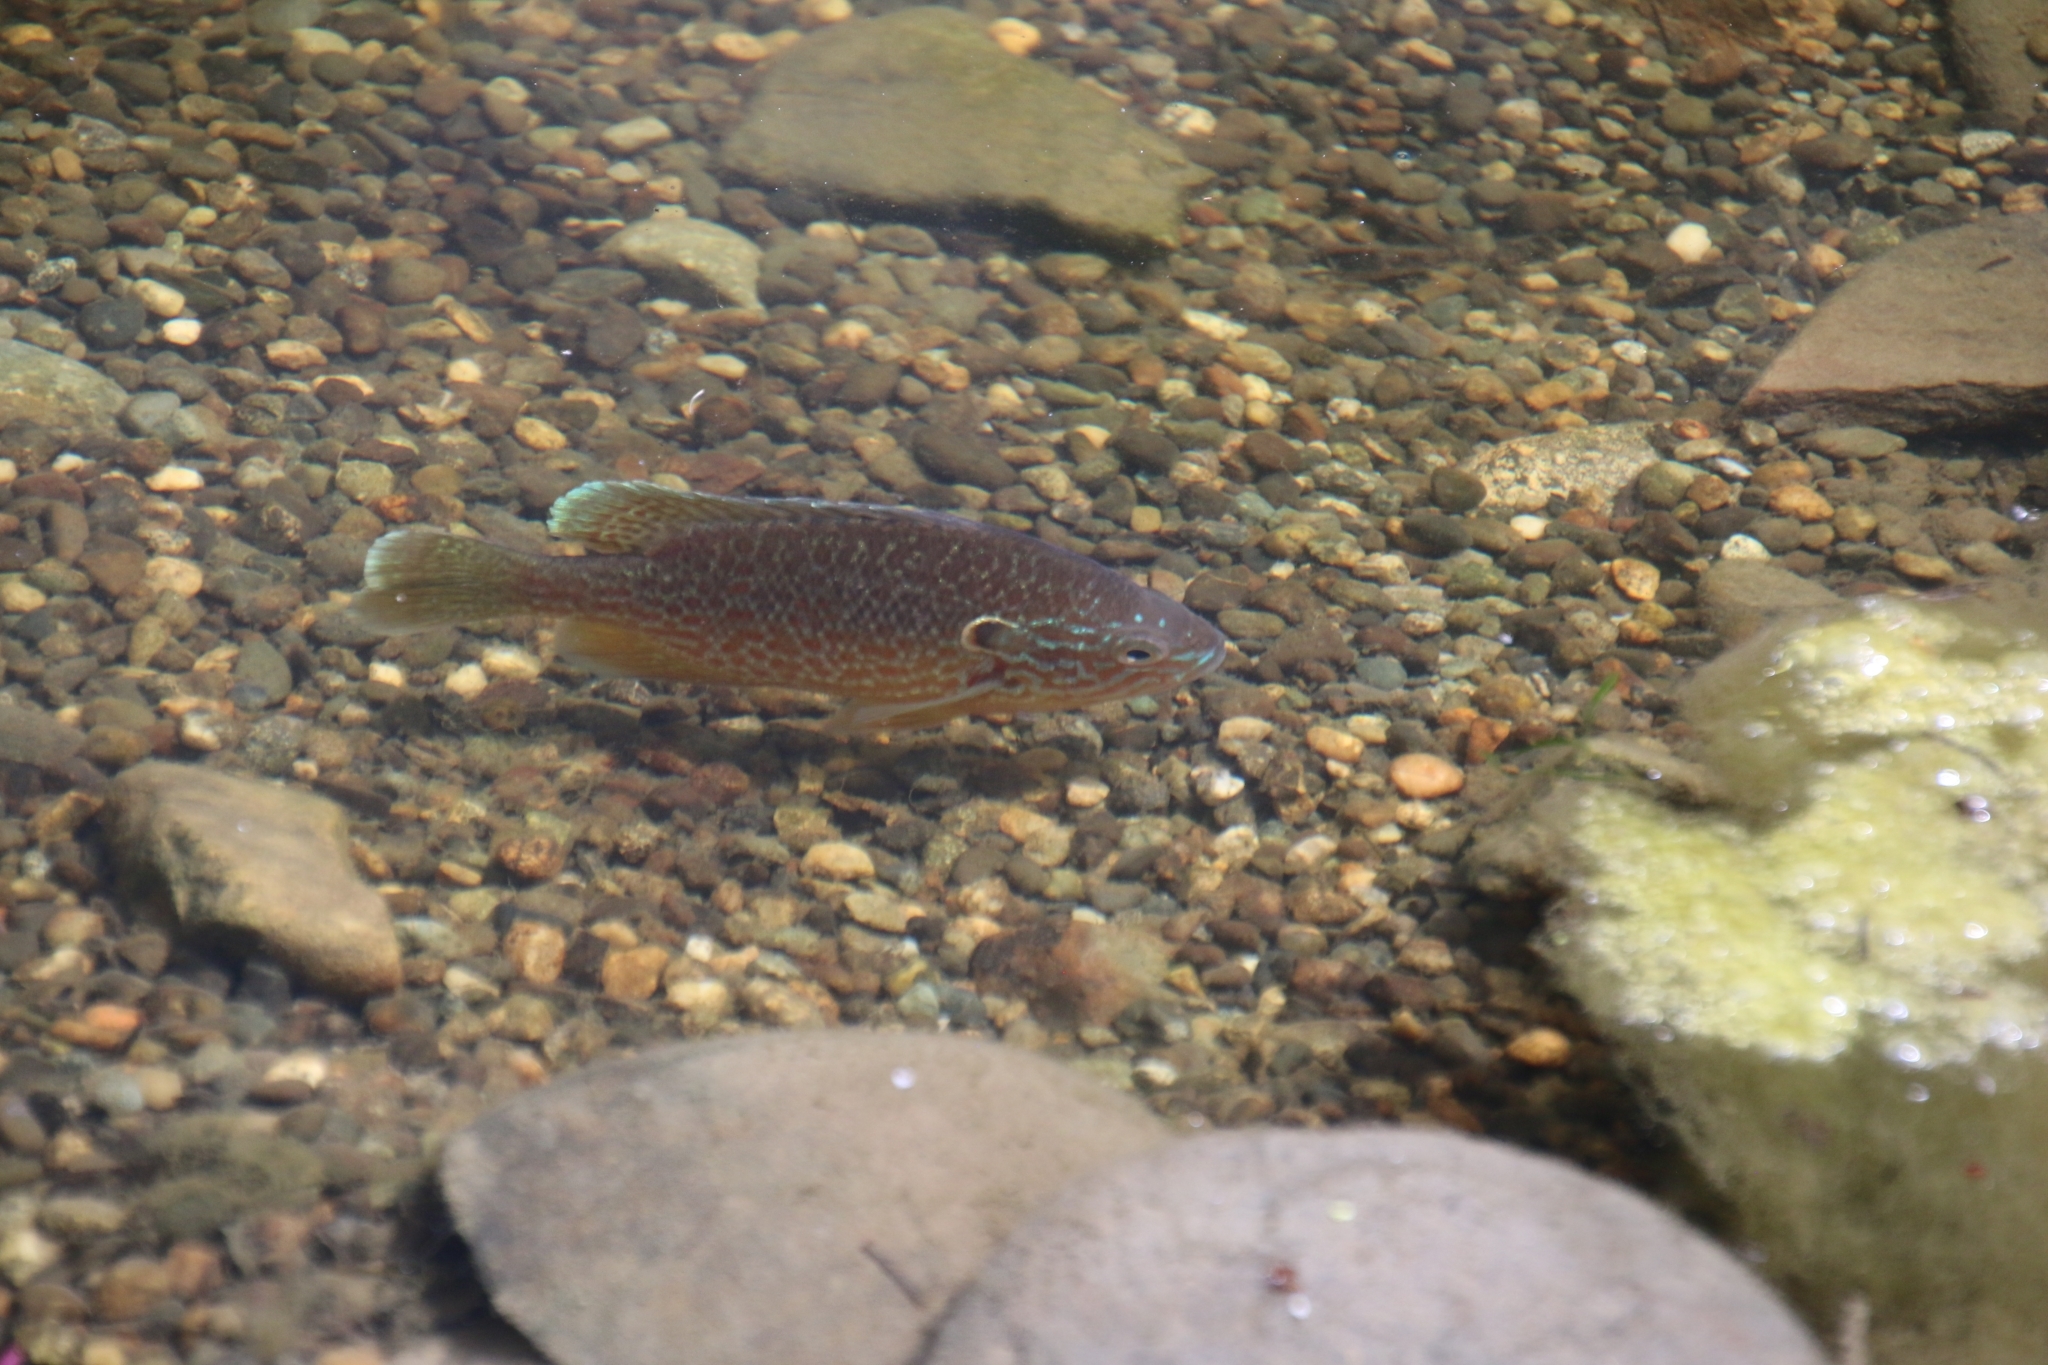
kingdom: Animalia
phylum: Chordata
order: Perciformes
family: Centrarchidae
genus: Lepomis
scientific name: Lepomis gibbosus
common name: Pumpkinseed
